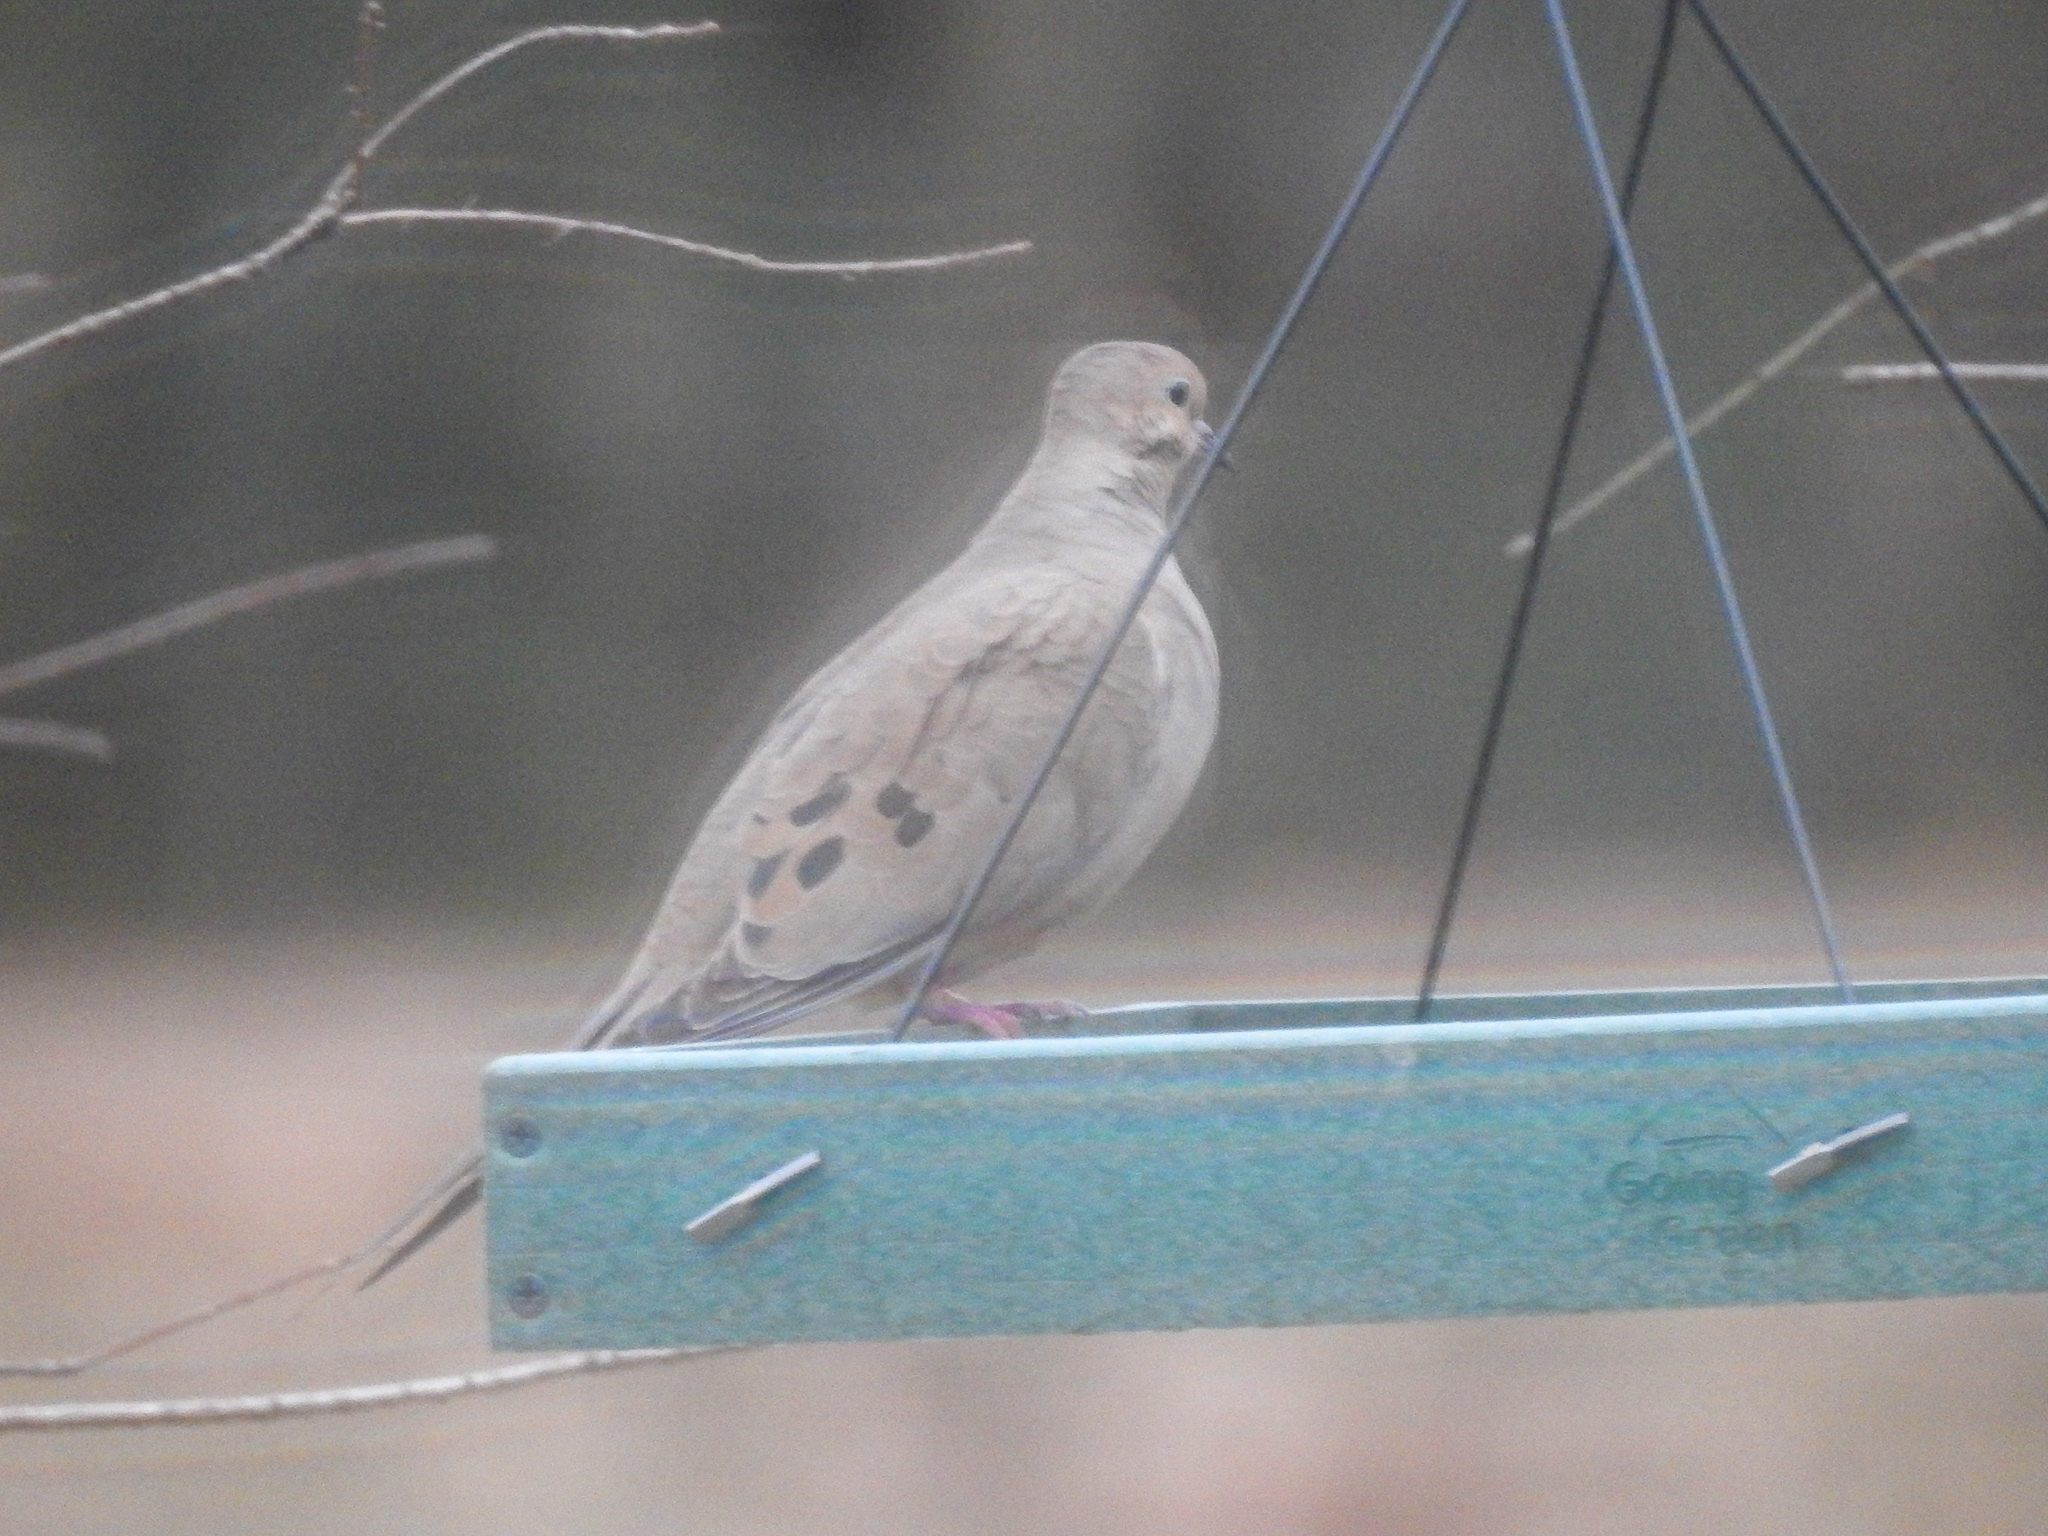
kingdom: Animalia
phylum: Chordata
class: Aves
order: Columbiformes
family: Columbidae
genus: Zenaida
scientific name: Zenaida macroura
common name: Mourning dove
